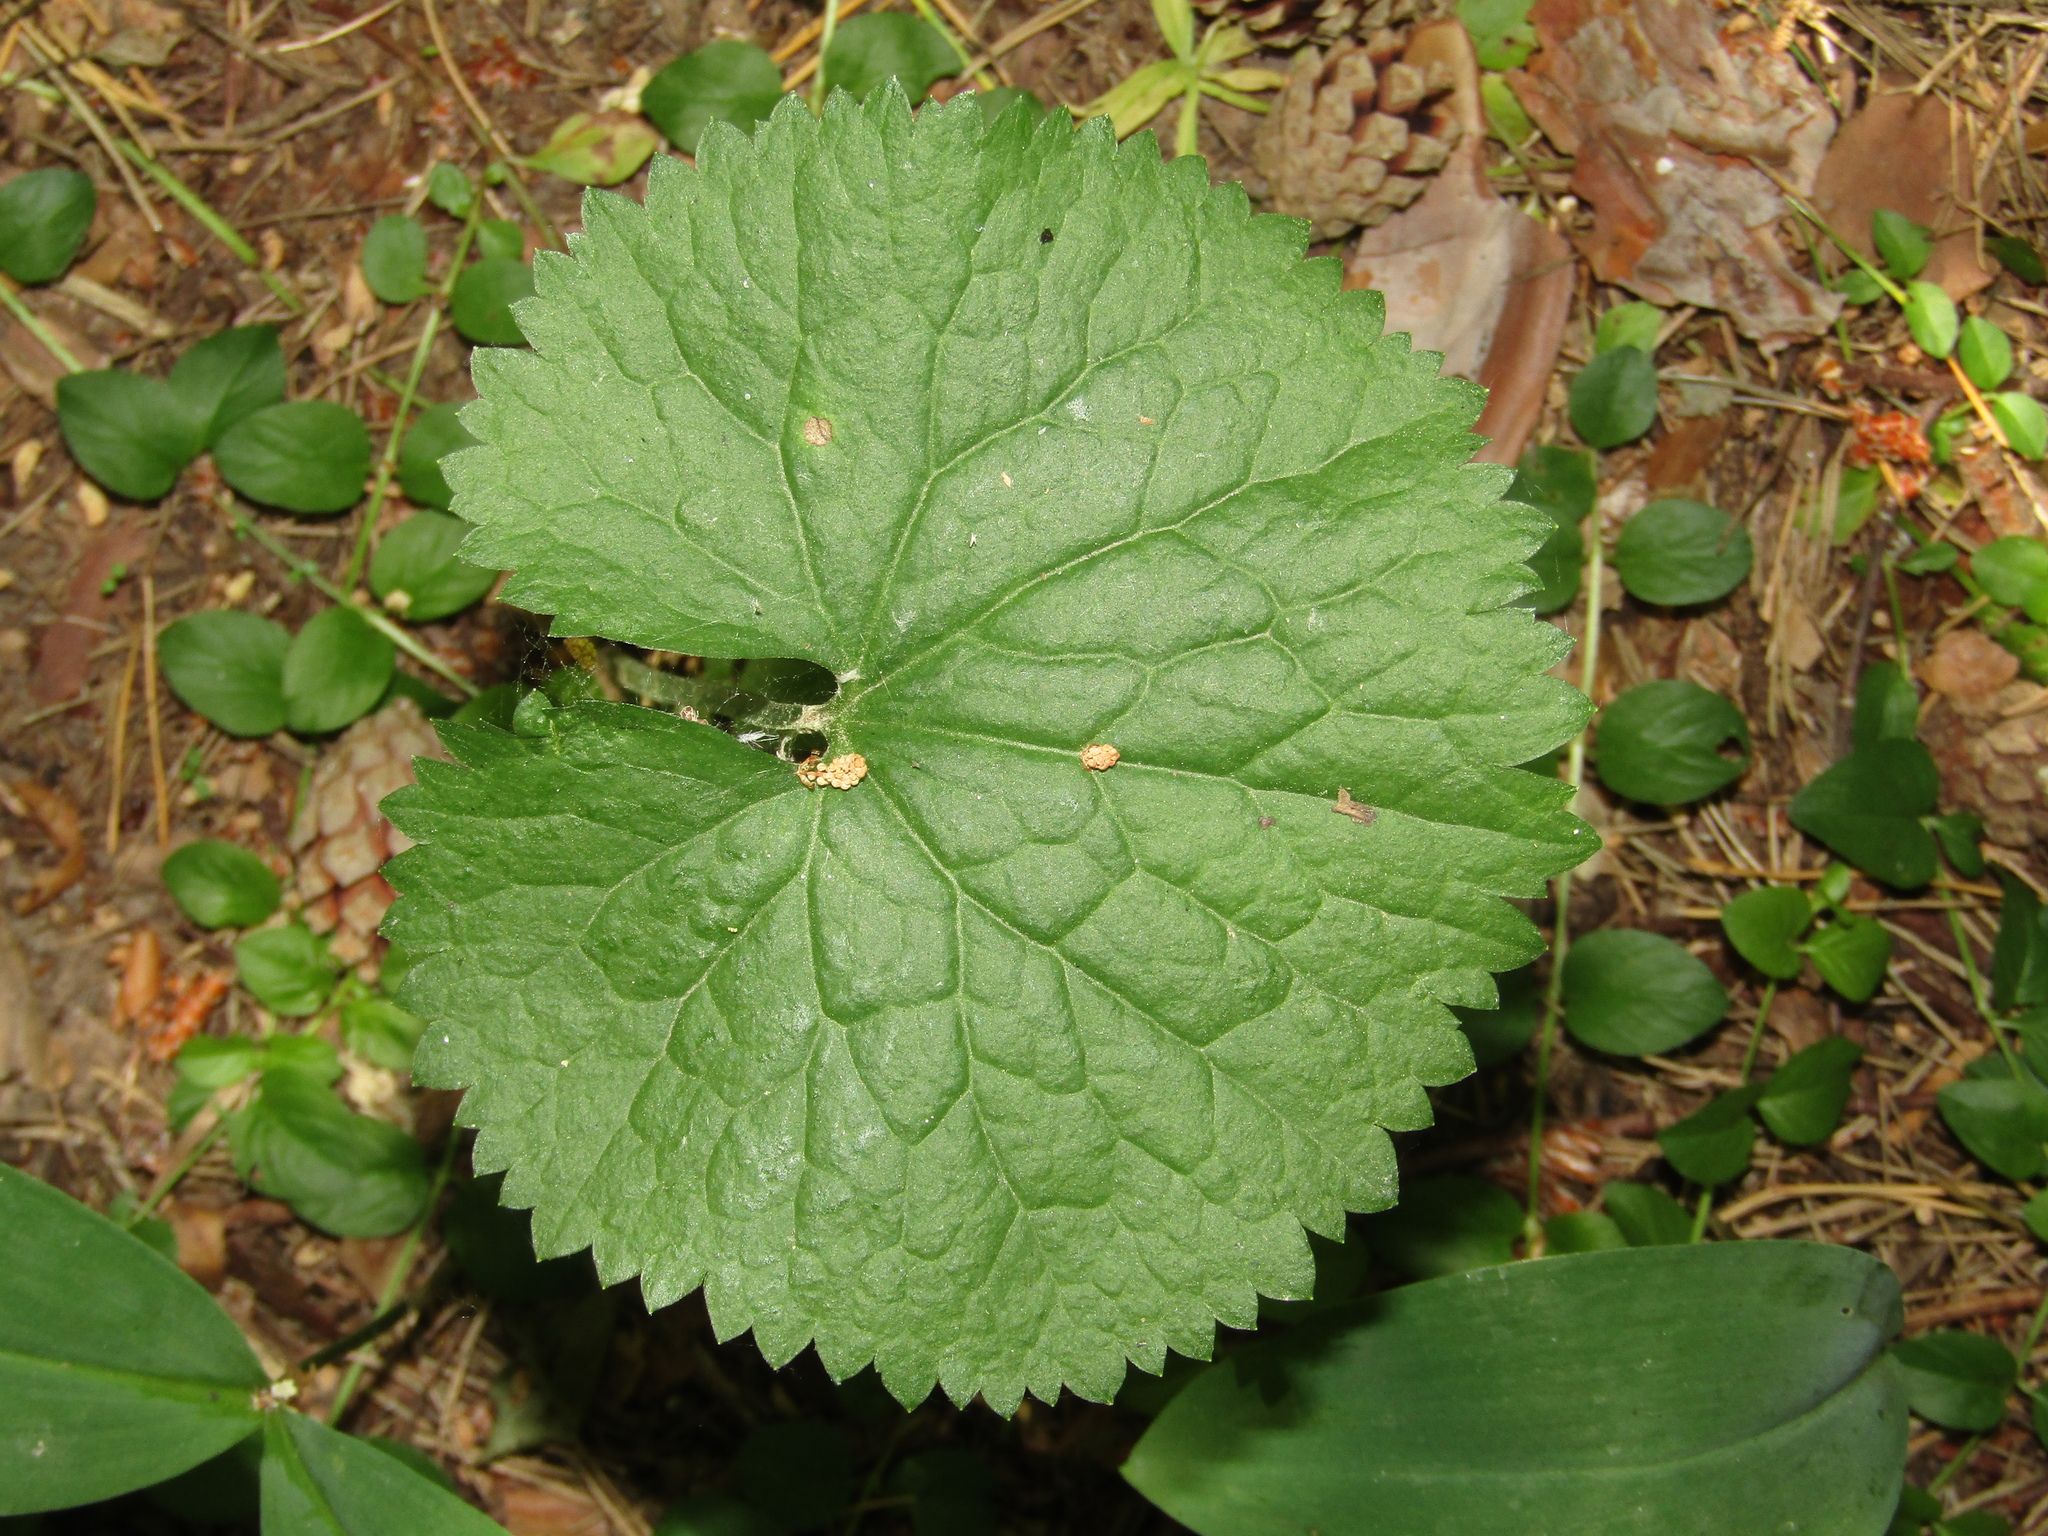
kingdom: Plantae
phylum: Tracheophyta
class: Magnoliopsida
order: Ranunculales
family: Ranunculaceae
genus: Ranunculus
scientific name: Ranunculus cassubicus
